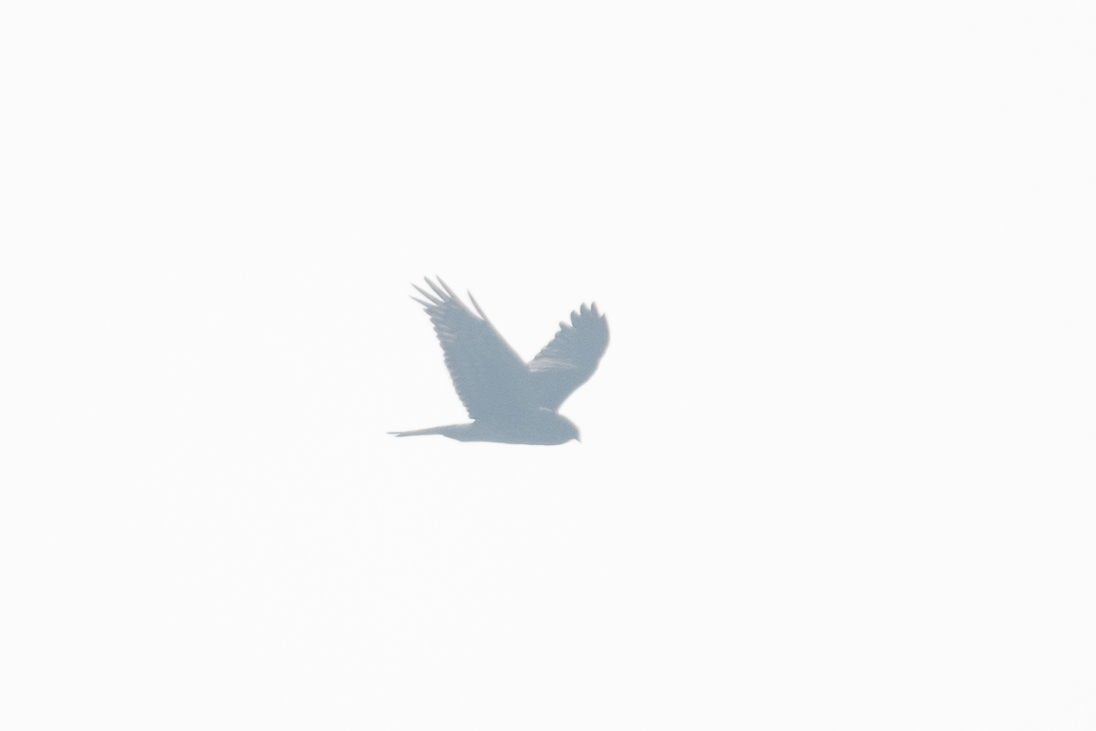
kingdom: Animalia
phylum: Chordata
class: Aves
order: Accipitriformes
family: Accipitridae
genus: Circus
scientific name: Circus cyaneus
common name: Hen harrier
